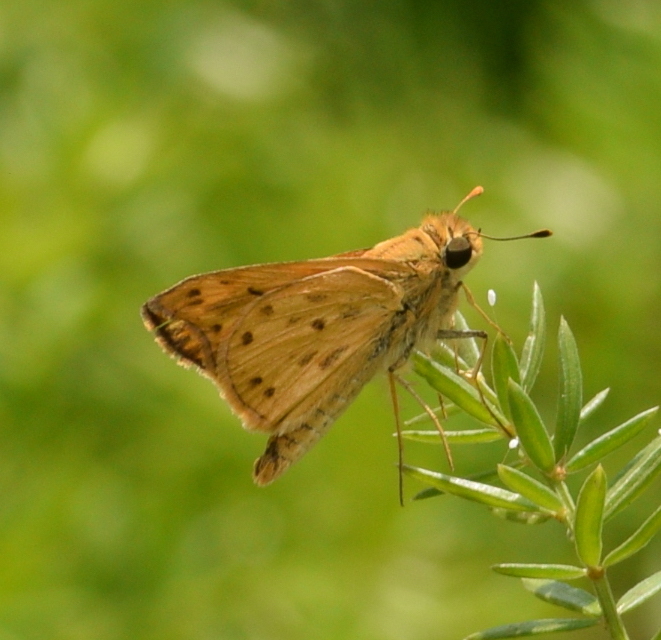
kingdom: Animalia
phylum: Arthropoda
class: Insecta
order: Lepidoptera
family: Hesperiidae
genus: Hylephila
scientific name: Hylephila phyleus
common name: Fiery skipper
